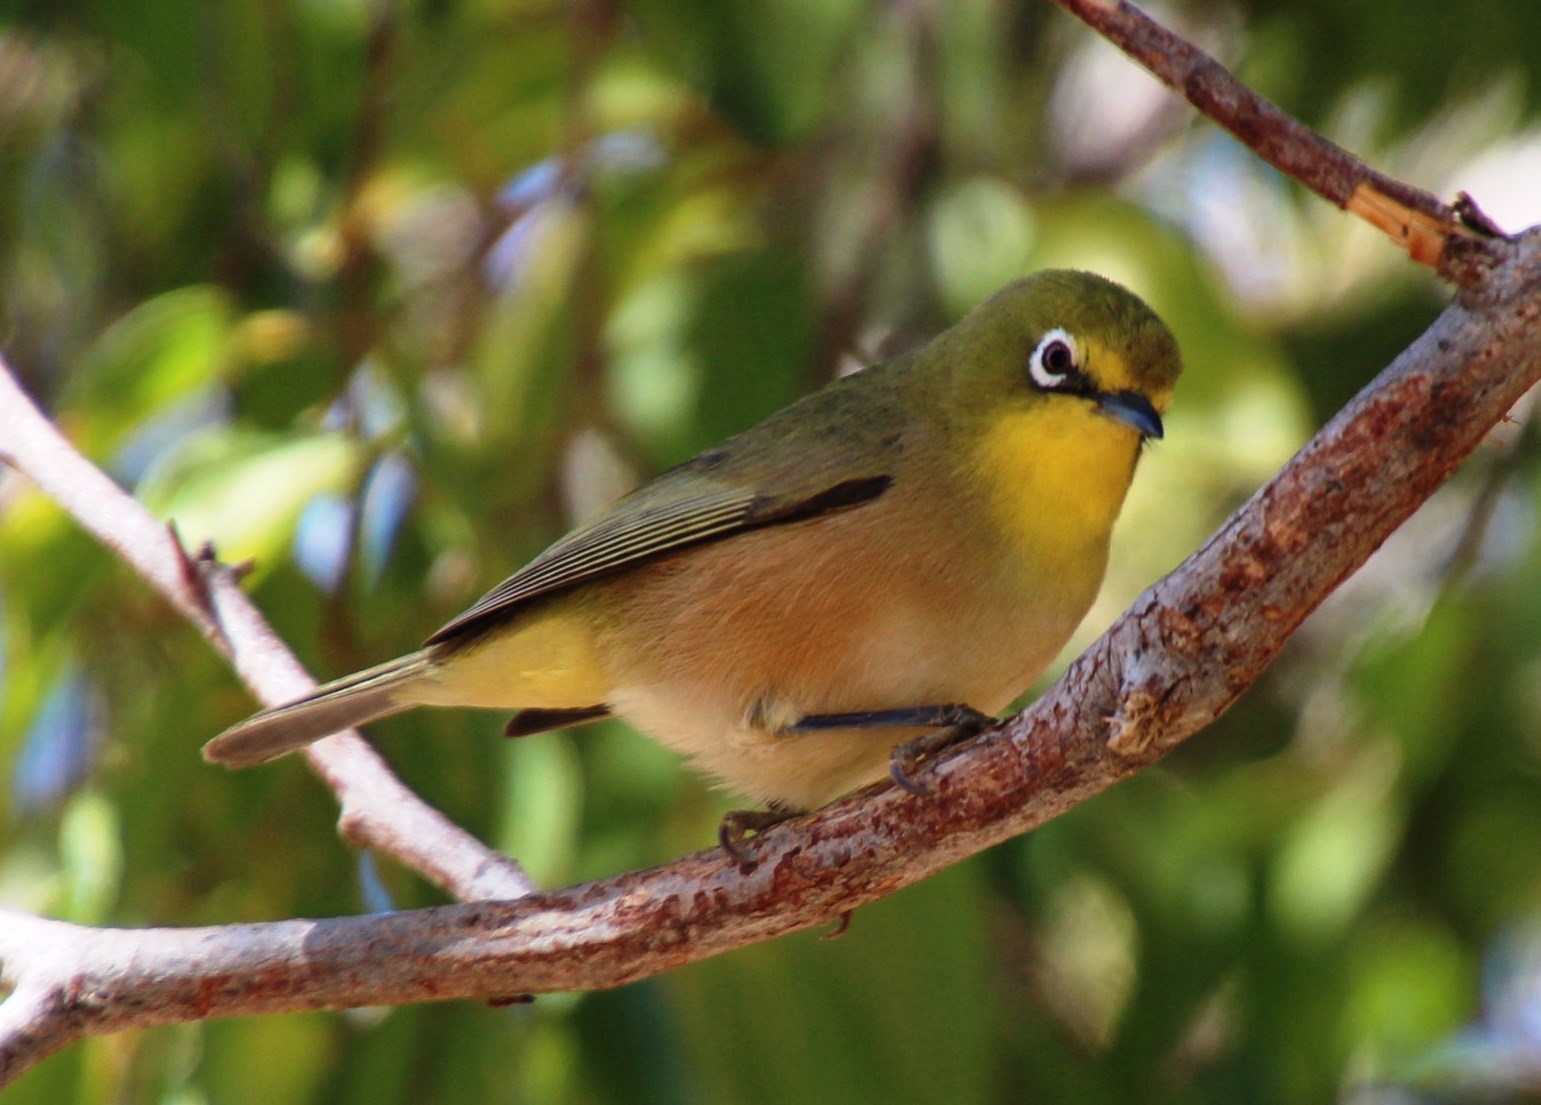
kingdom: Animalia
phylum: Chordata
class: Aves
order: Passeriformes
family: Zosteropidae
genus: Zosterops
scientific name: Zosterops pallidus
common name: Orange river white-eye
